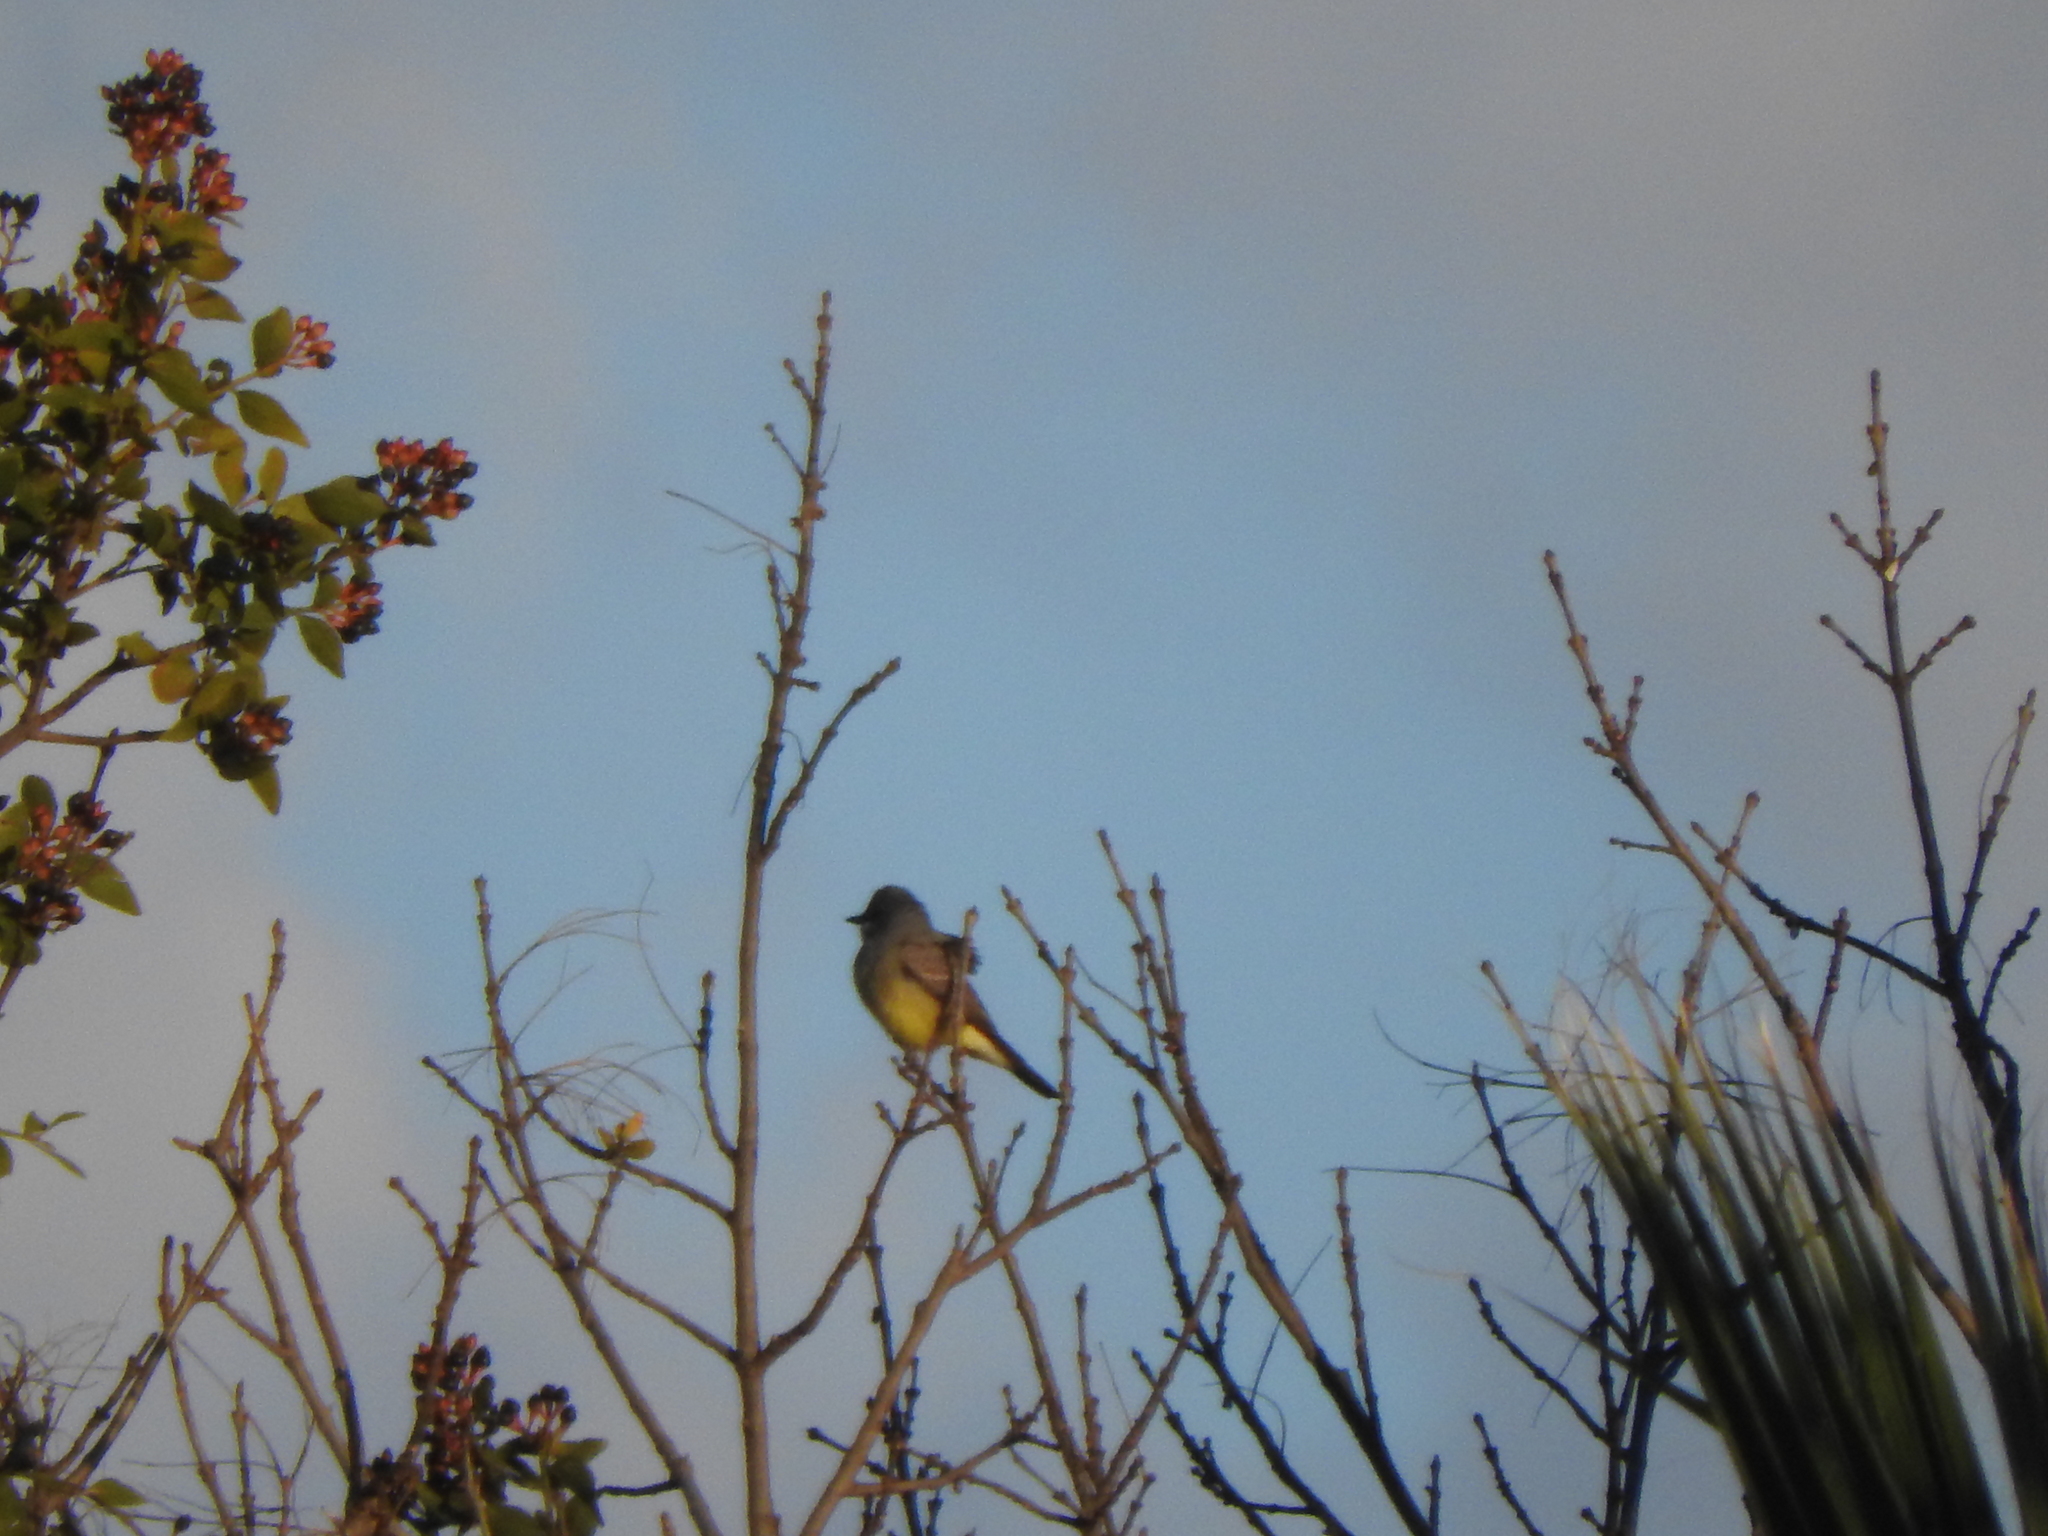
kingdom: Animalia
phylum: Chordata
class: Aves
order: Passeriformes
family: Tyrannidae
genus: Tyrannus
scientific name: Tyrannus vociferans
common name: Cassin's kingbird
